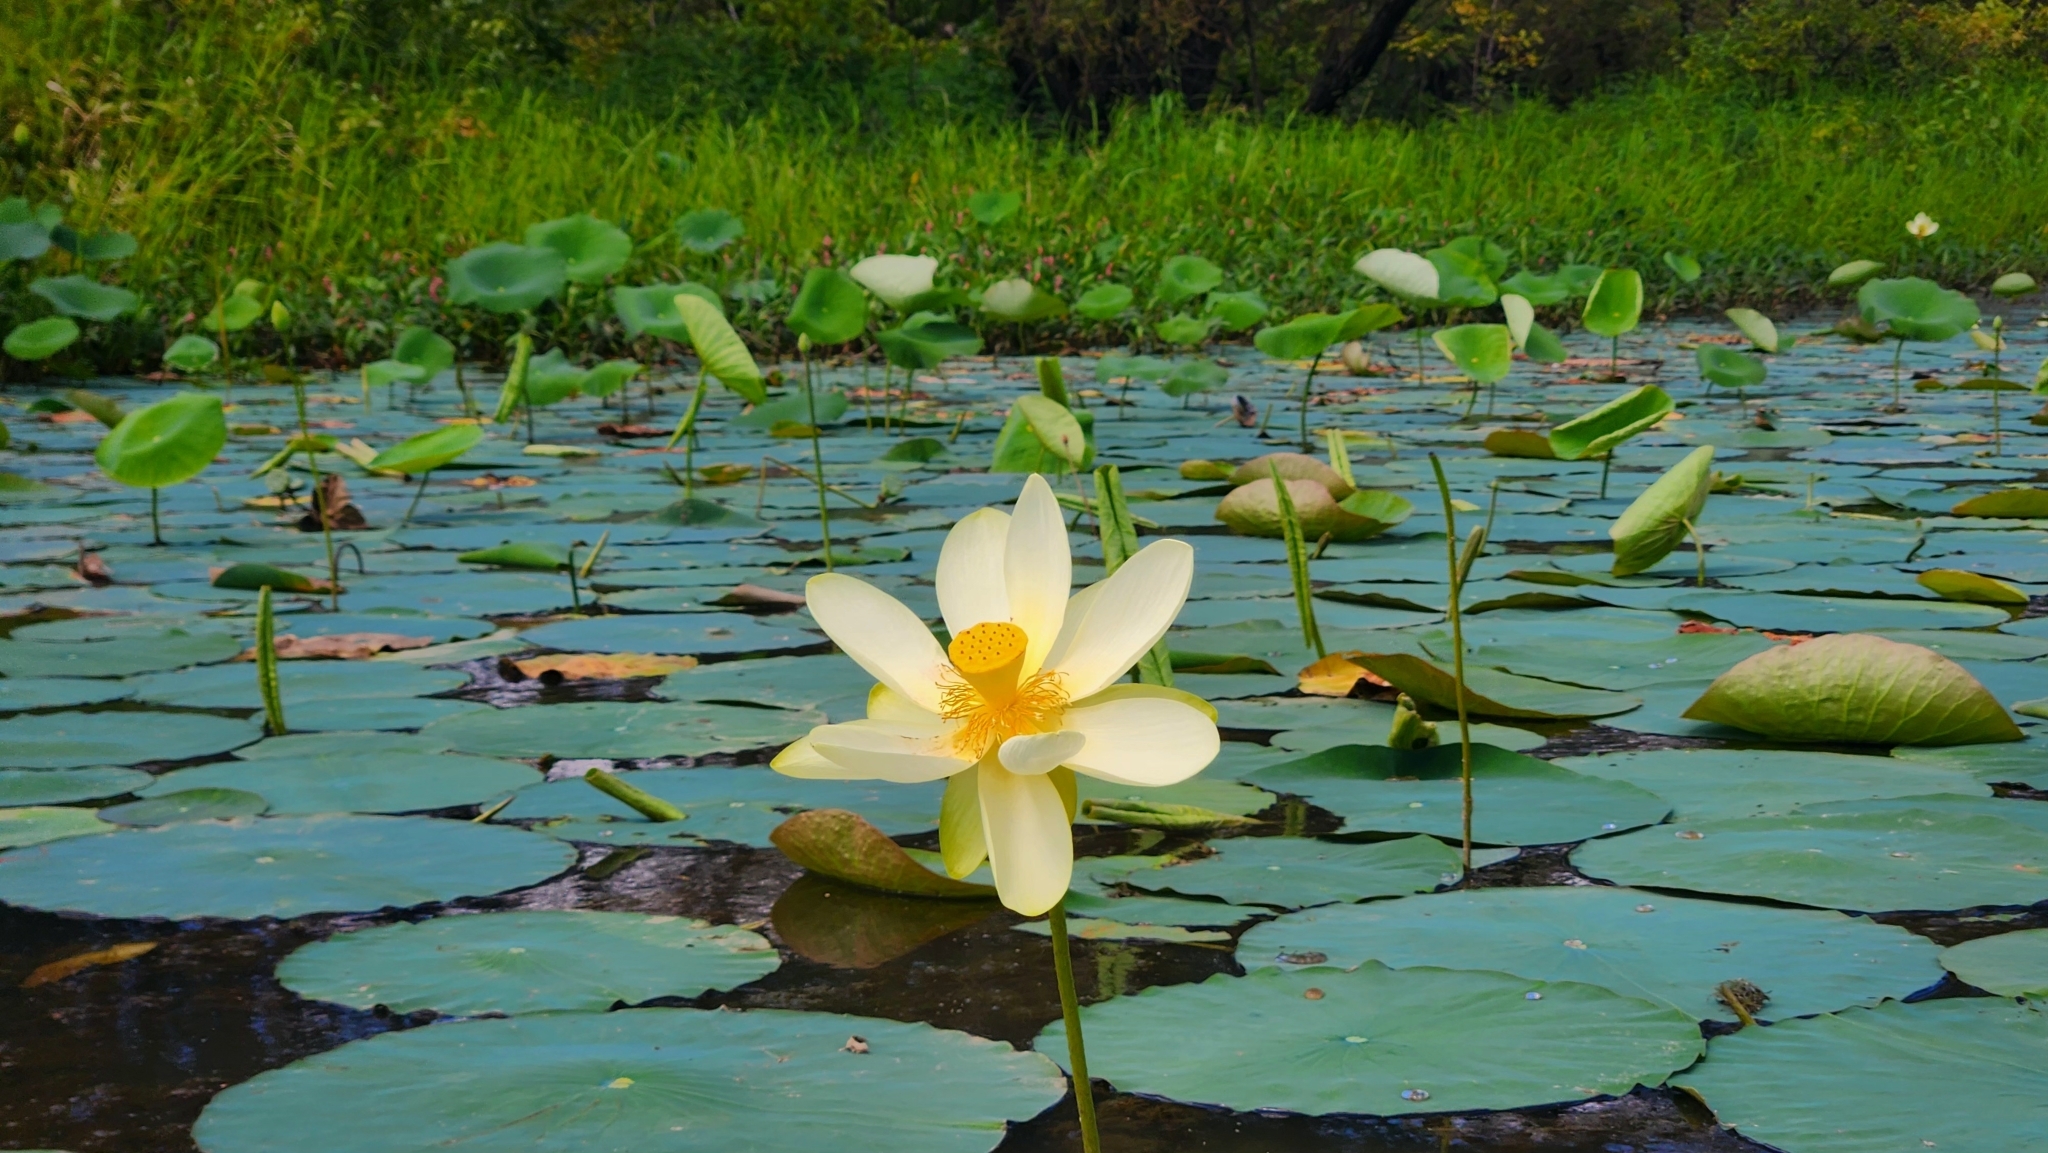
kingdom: Plantae
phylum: Tracheophyta
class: Magnoliopsida
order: Proteales
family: Nelumbonaceae
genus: Nelumbo
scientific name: Nelumbo lutea
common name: American lotus
